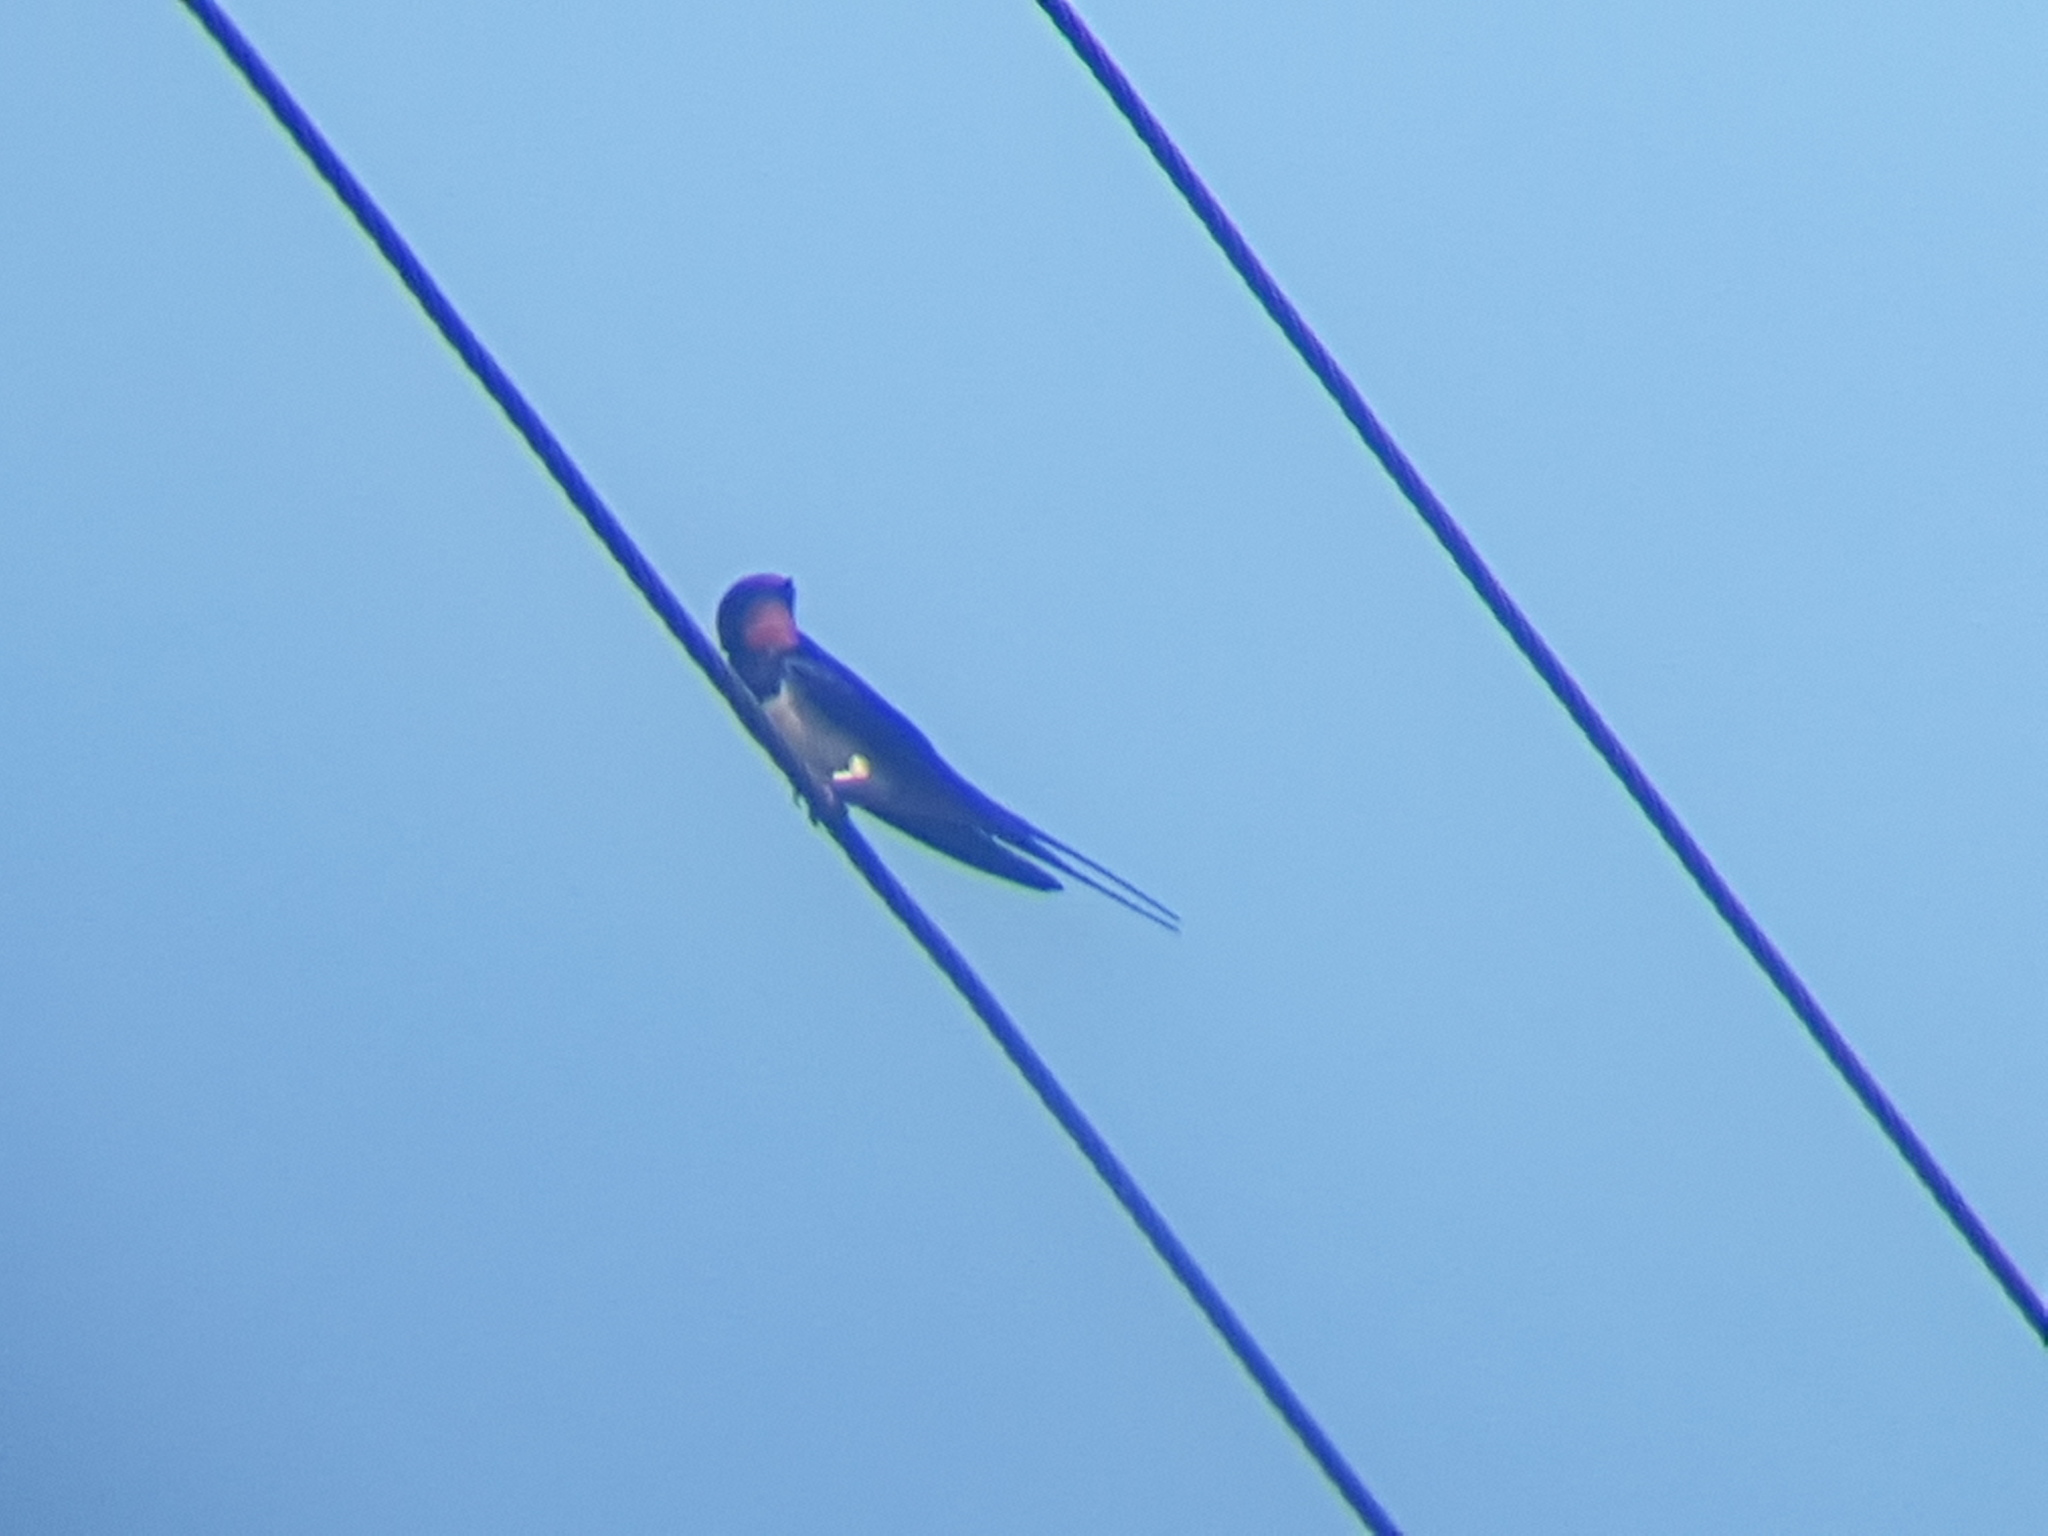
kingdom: Animalia
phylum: Chordata
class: Aves
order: Passeriformes
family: Hirundinidae
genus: Hirundo
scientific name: Hirundo rustica
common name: Barn swallow
